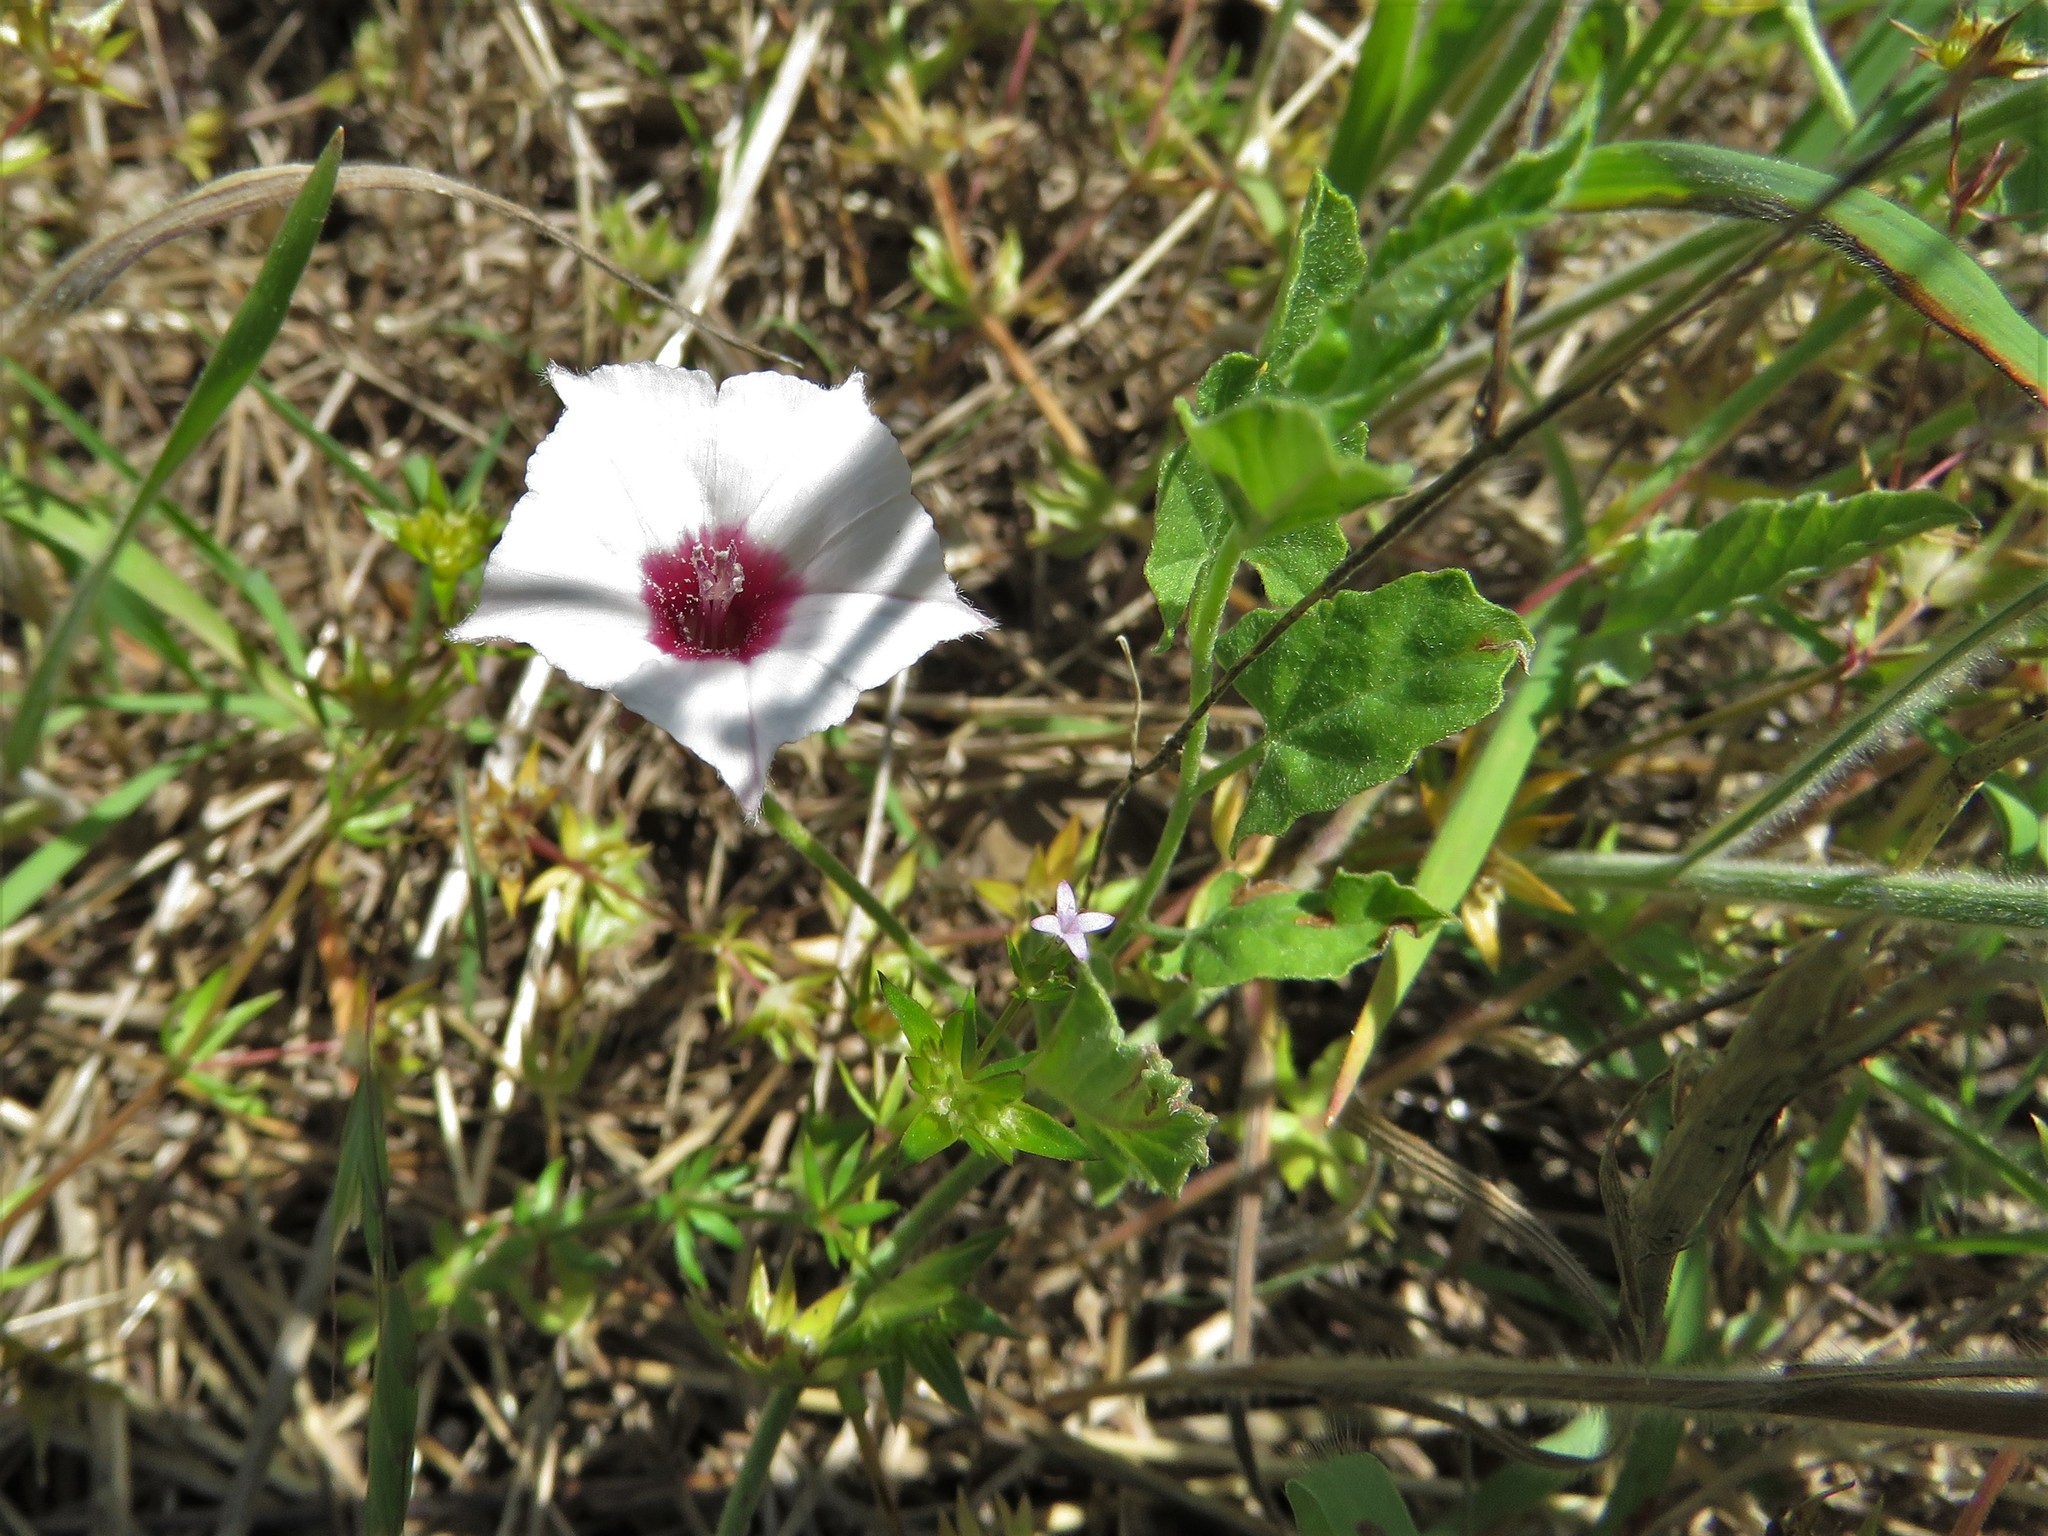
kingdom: Plantae
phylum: Tracheophyta
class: Magnoliopsida
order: Solanales
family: Convolvulaceae
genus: Convolvulus
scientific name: Convolvulus equitans
